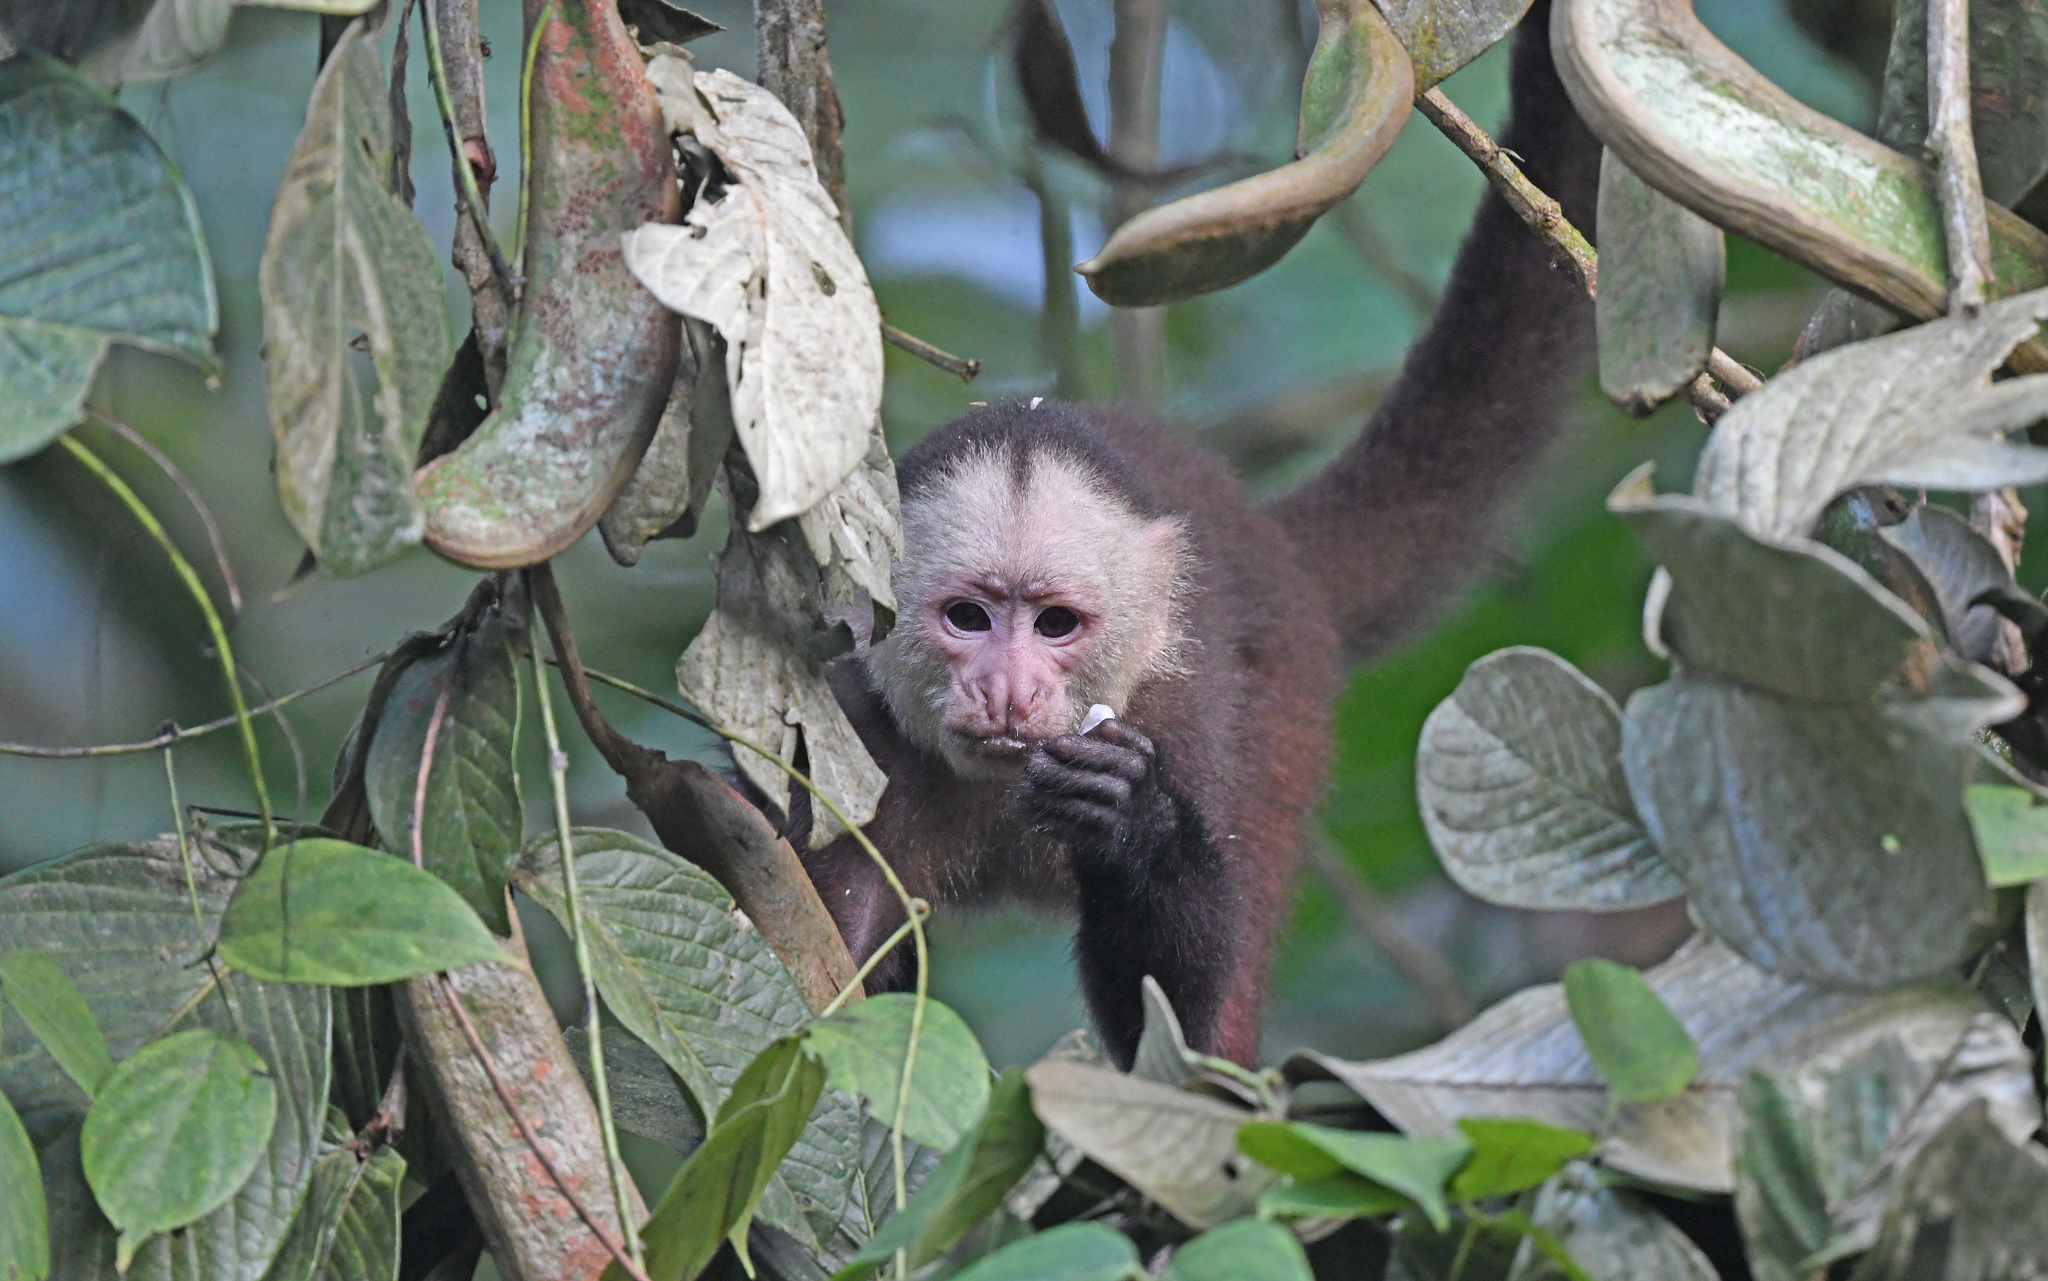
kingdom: Animalia
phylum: Chordata
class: Mammalia
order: Primates
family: Cebidae
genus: Cebus
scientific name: Cebus versicolor
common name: Varied capuchin
